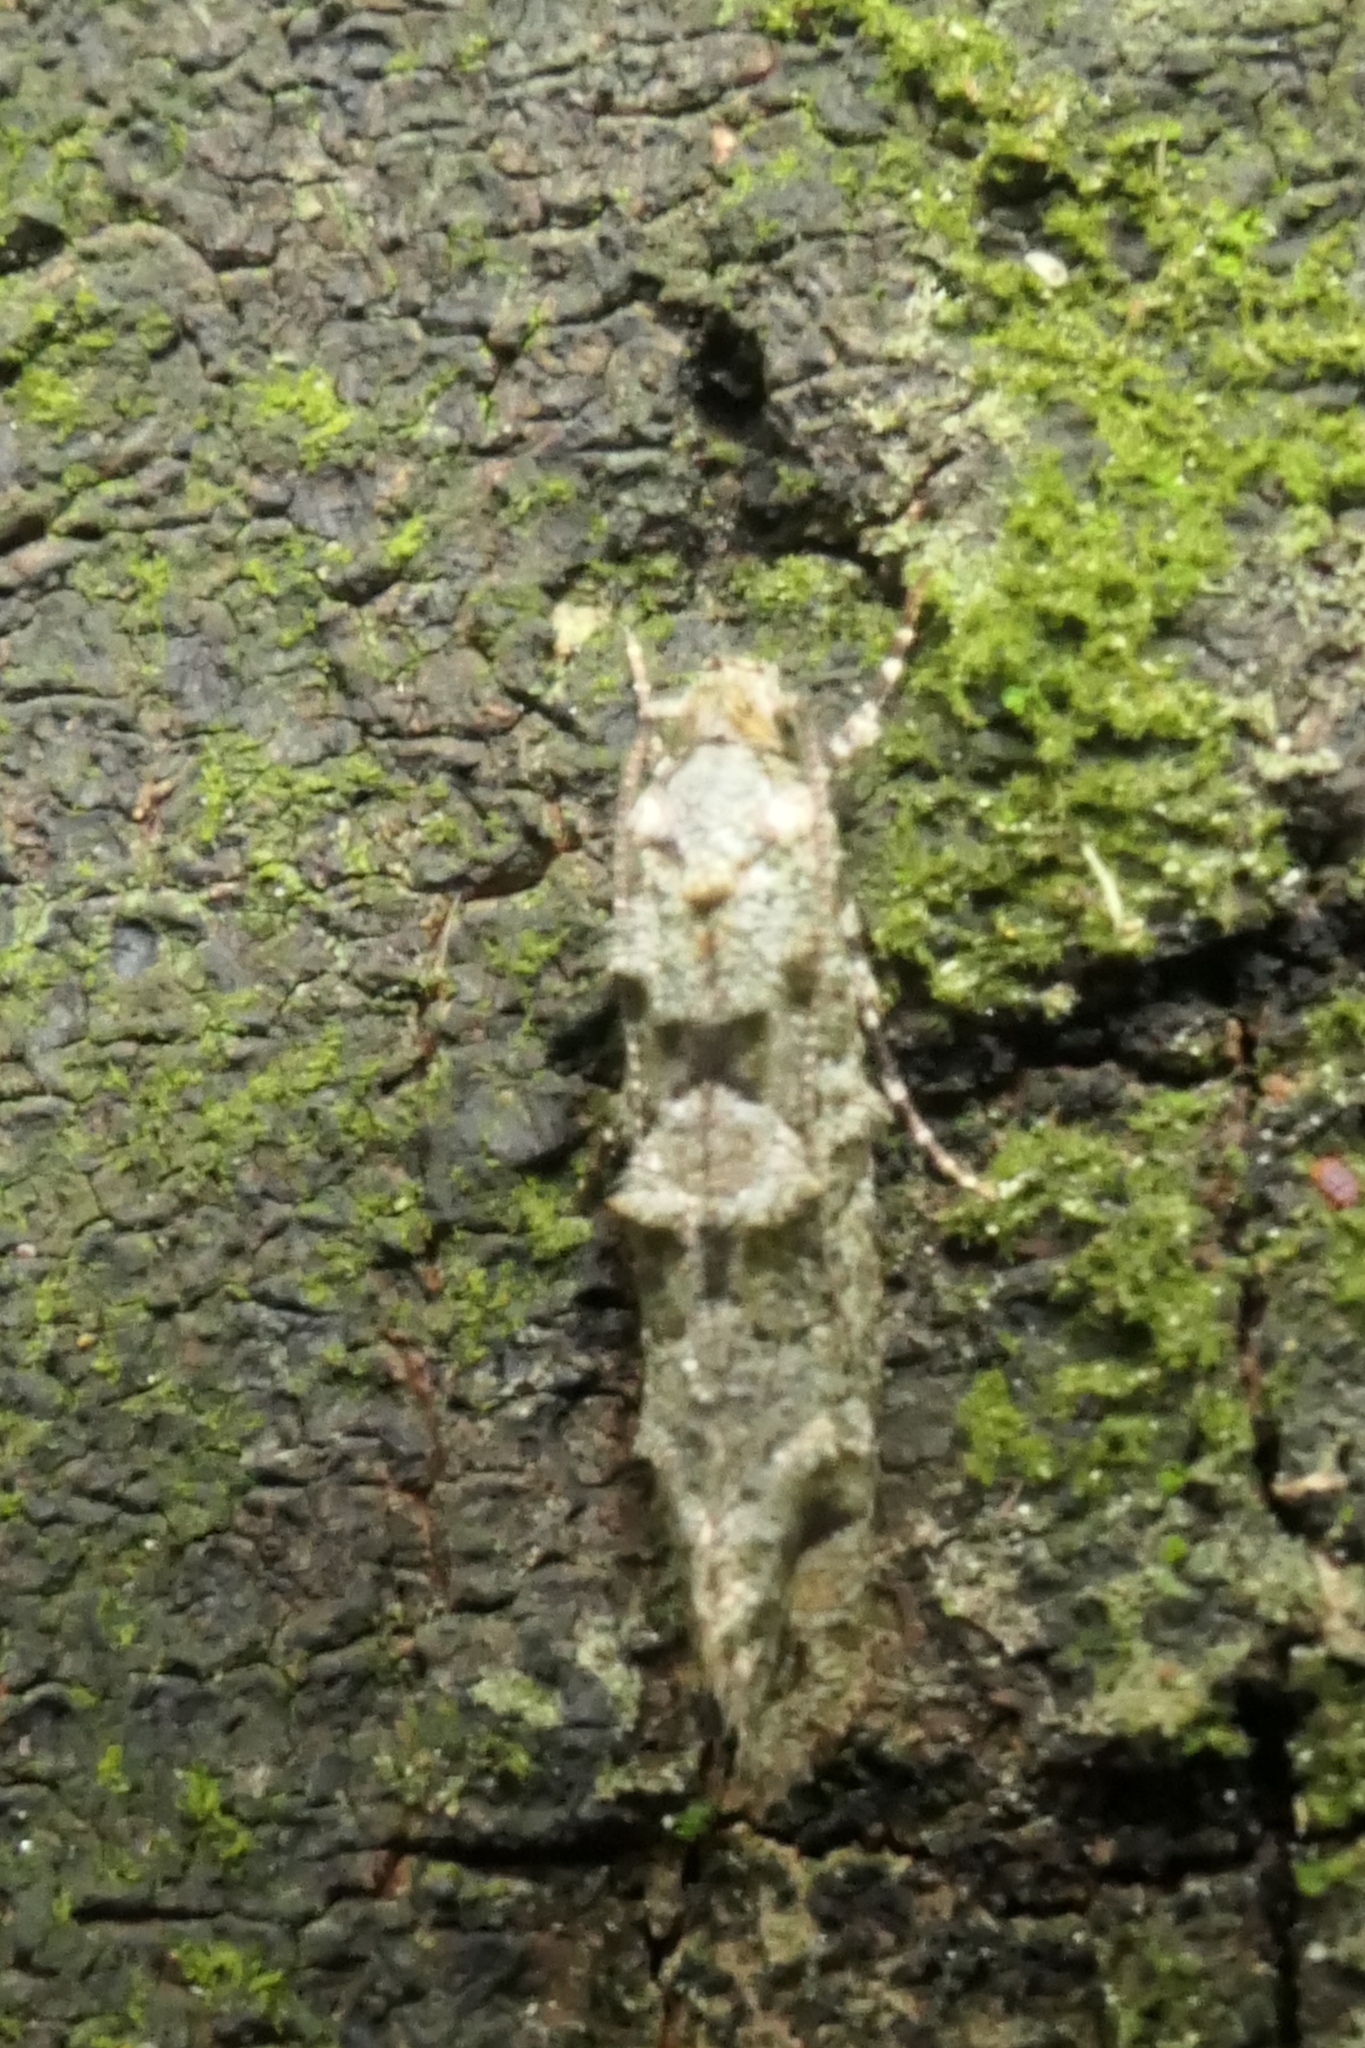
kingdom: Animalia
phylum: Arthropoda
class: Insecta
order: Lepidoptera
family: Tineidae
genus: Lysiphragma
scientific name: Lysiphragma howesii
